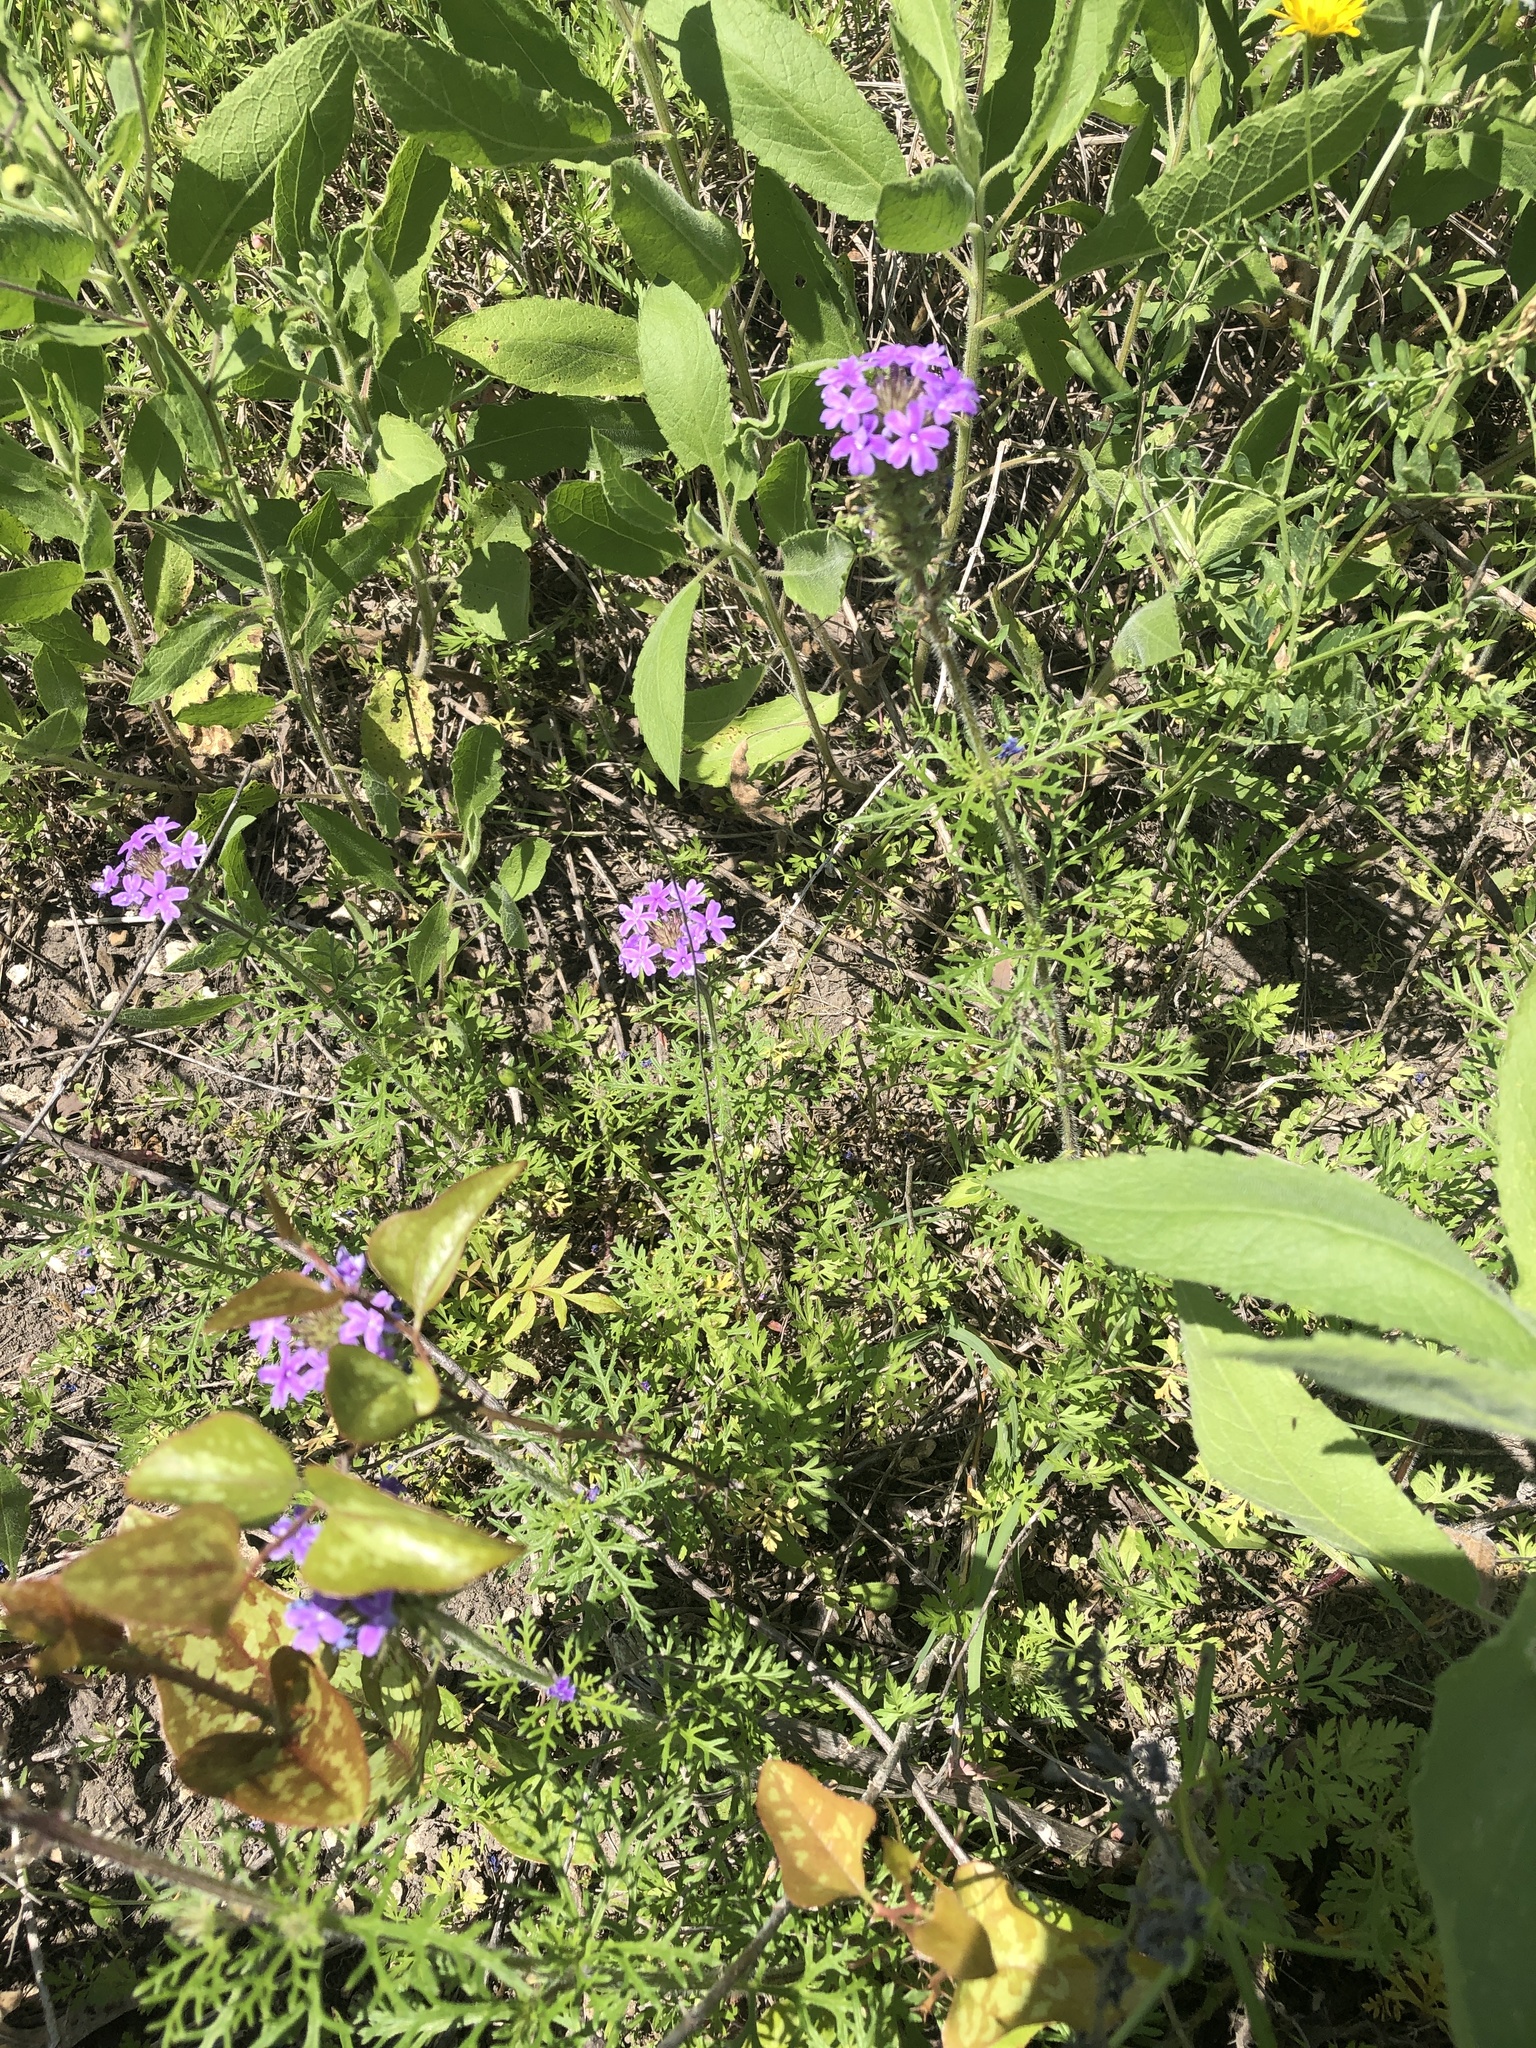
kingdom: Plantae
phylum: Tracheophyta
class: Magnoliopsida
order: Lamiales
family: Verbenaceae
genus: Verbena
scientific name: Verbena bipinnatifida
